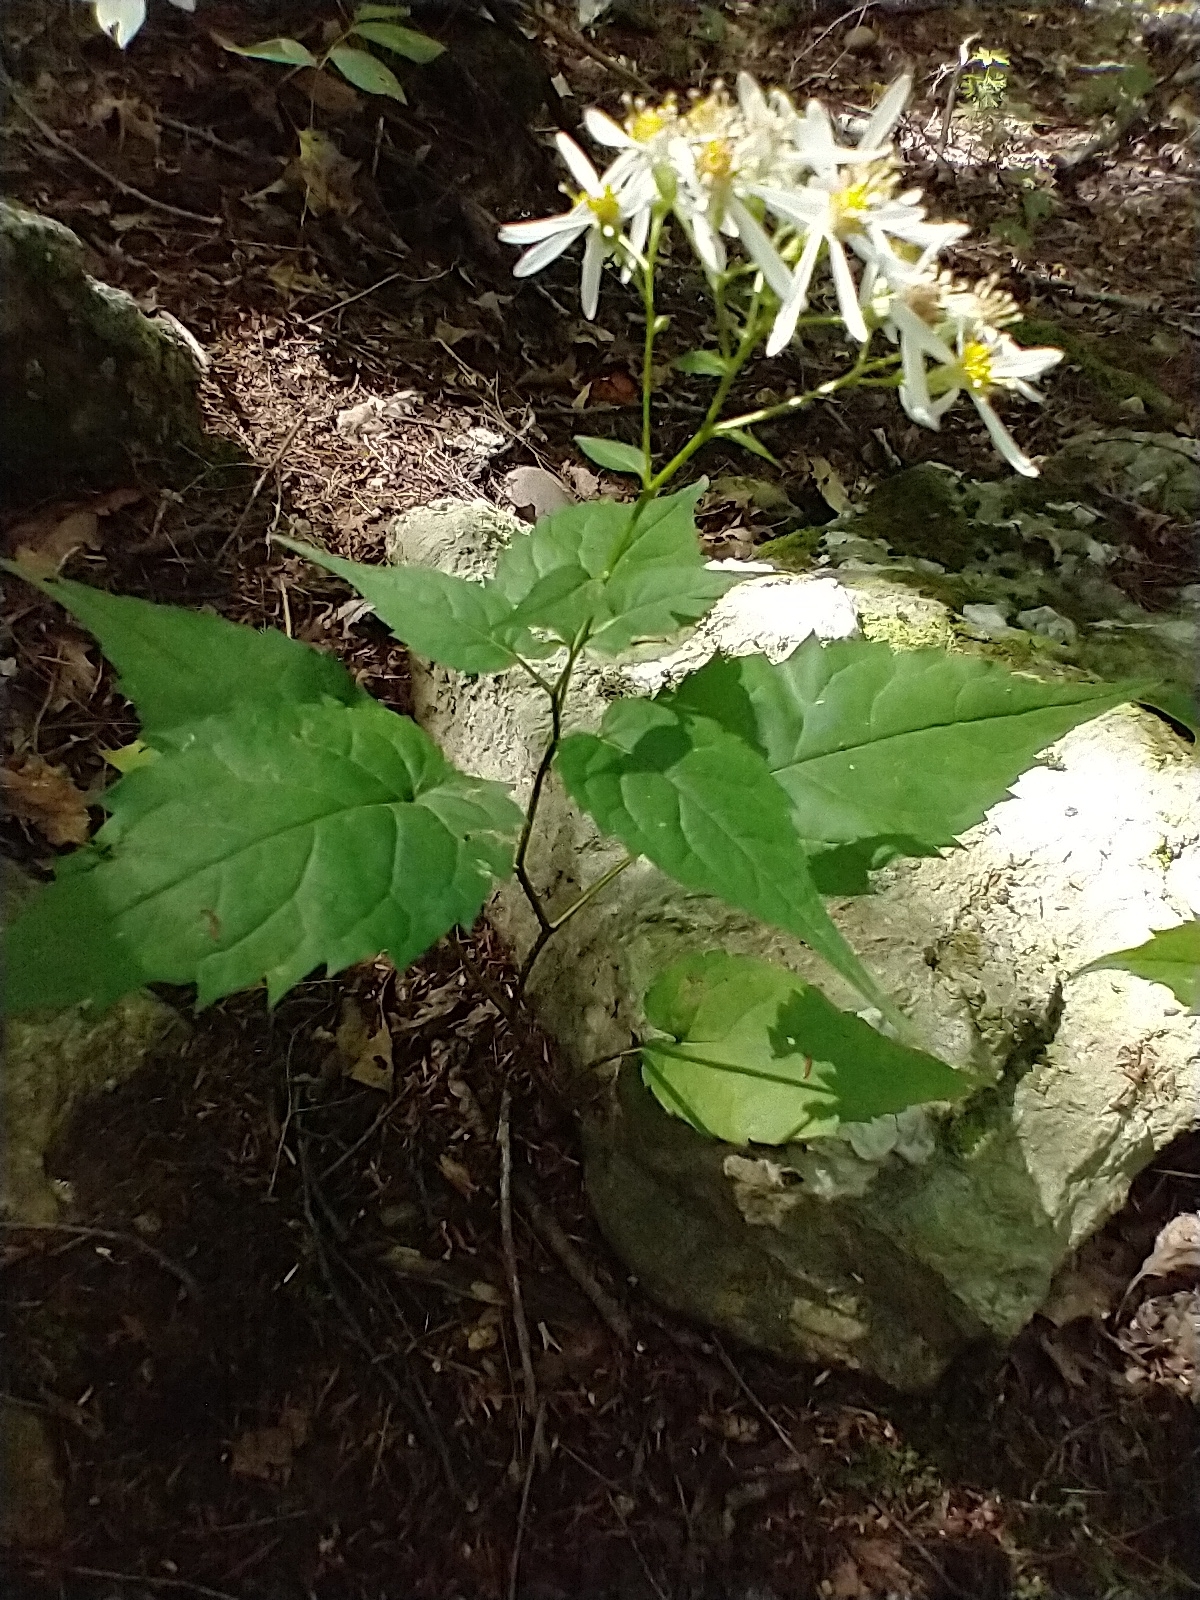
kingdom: Plantae
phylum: Tracheophyta
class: Magnoliopsida
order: Asterales
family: Asteraceae
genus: Eurybia
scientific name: Eurybia divaricata
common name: White wood aster
